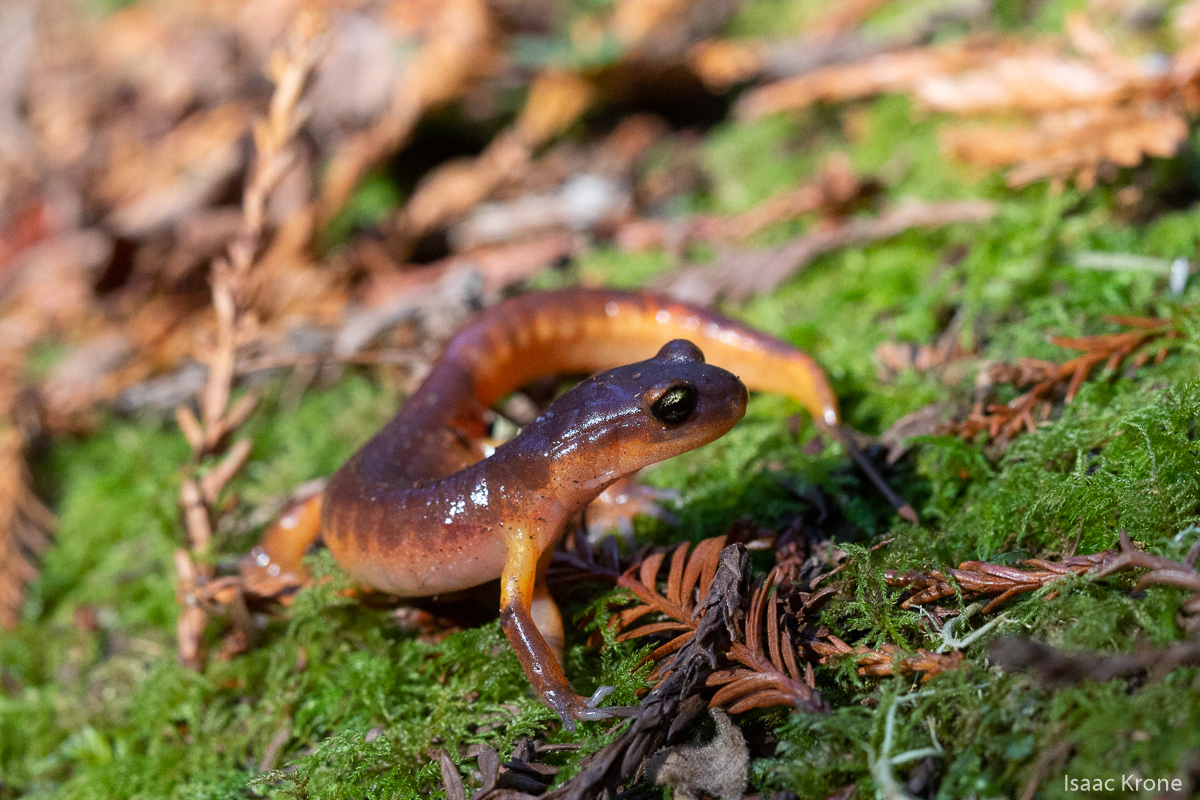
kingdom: Animalia
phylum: Chordata
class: Amphibia
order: Caudata
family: Plethodontidae
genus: Ensatina
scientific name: Ensatina eschscholtzii
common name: Ensatina
